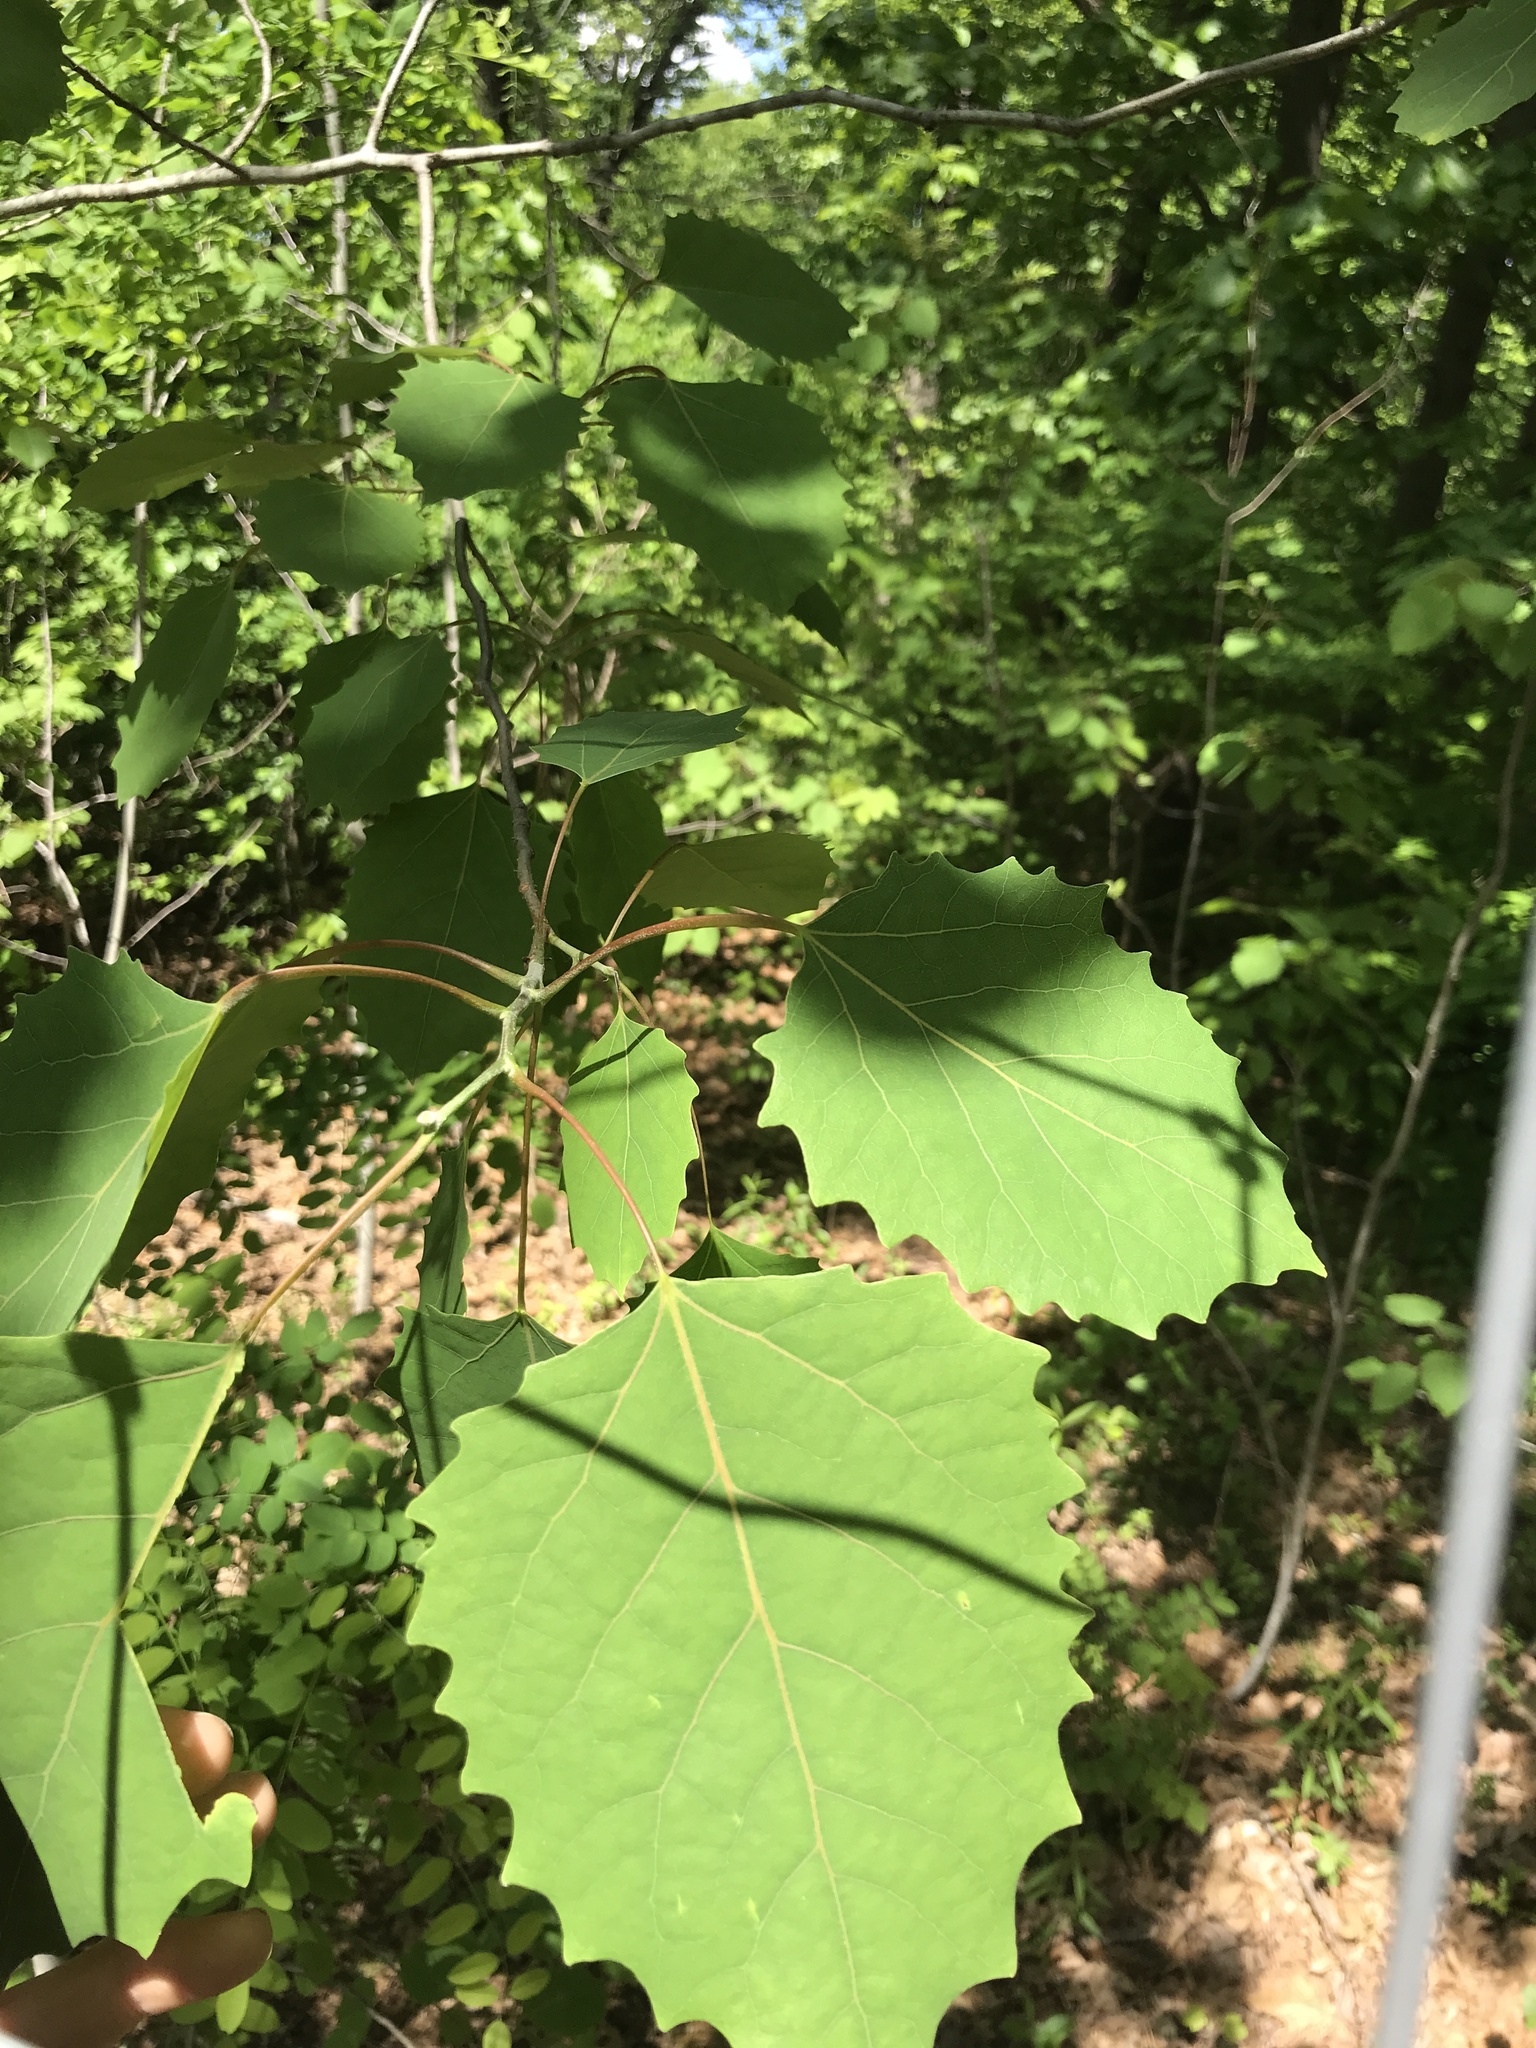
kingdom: Plantae
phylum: Tracheophyta
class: Magnoliopsida
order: Malpighiales
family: Salicaceae
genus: Populus
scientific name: Populus grandidentata
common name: Bigtooth aspen
